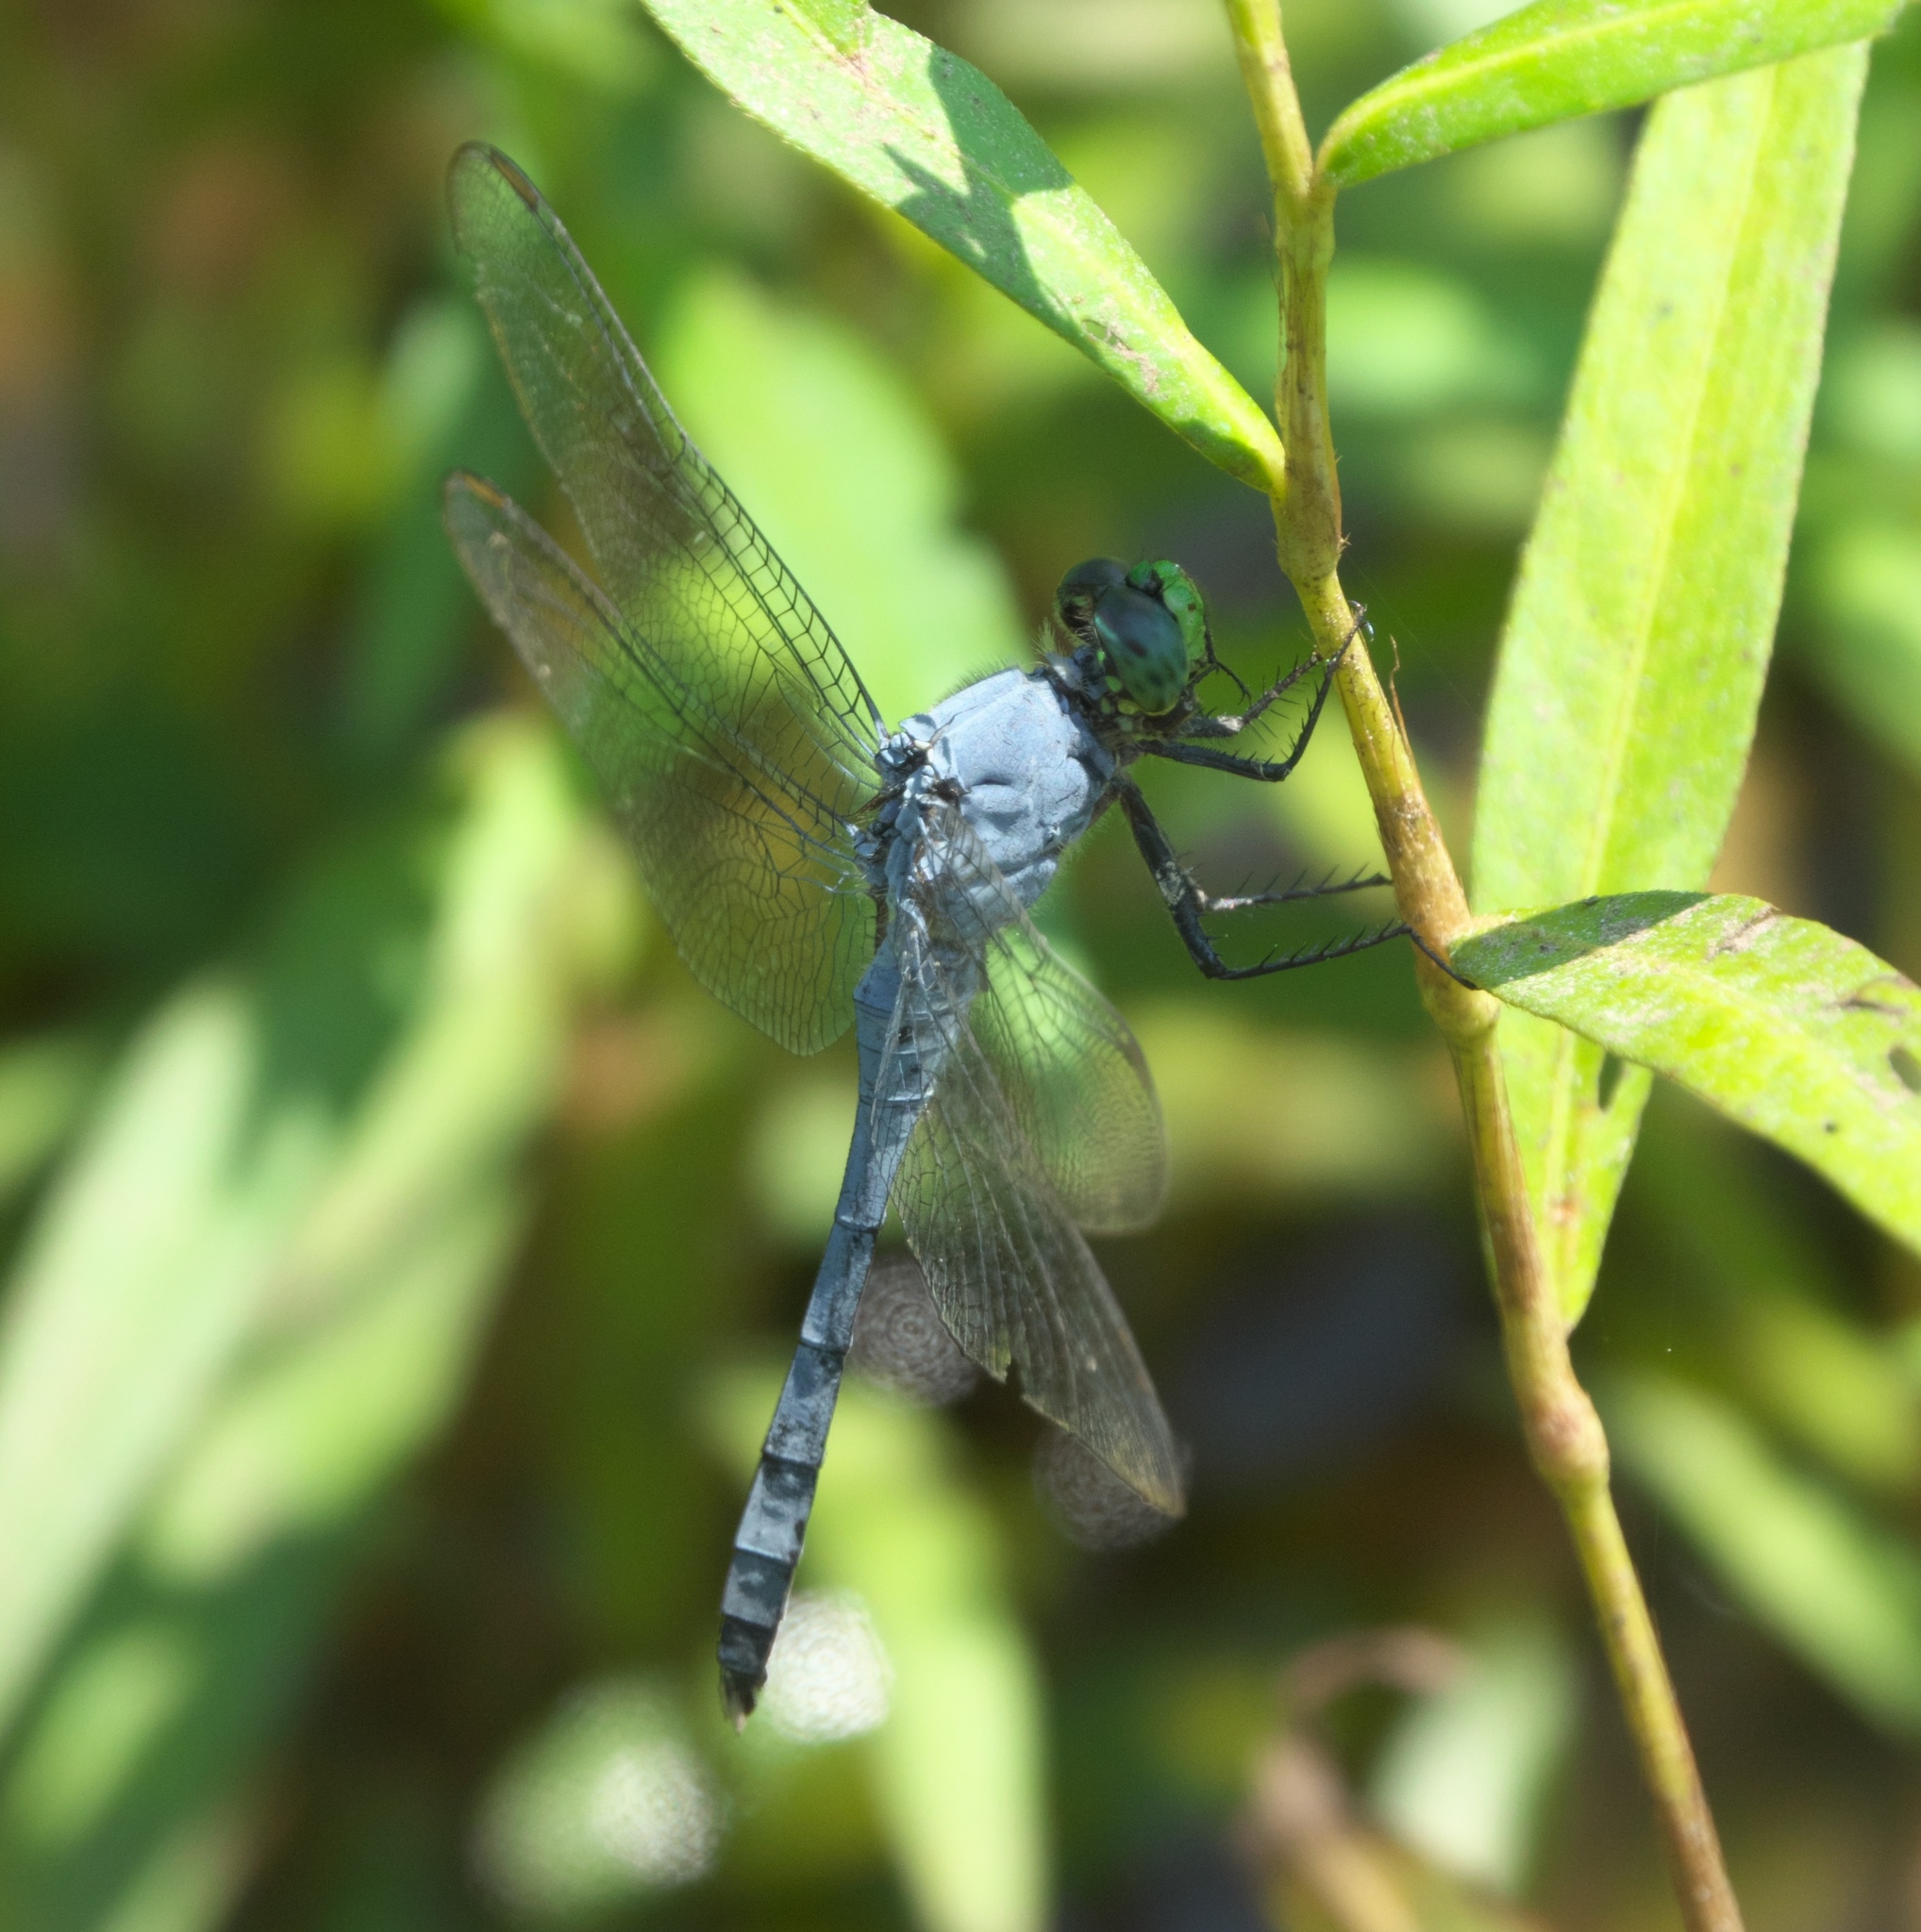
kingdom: Animalia
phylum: Arthropoda
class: Insecta
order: Odonata
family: Libellulidae
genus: Erythemis
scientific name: Erythemis simplicicollis
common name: Eastern pondhawk
